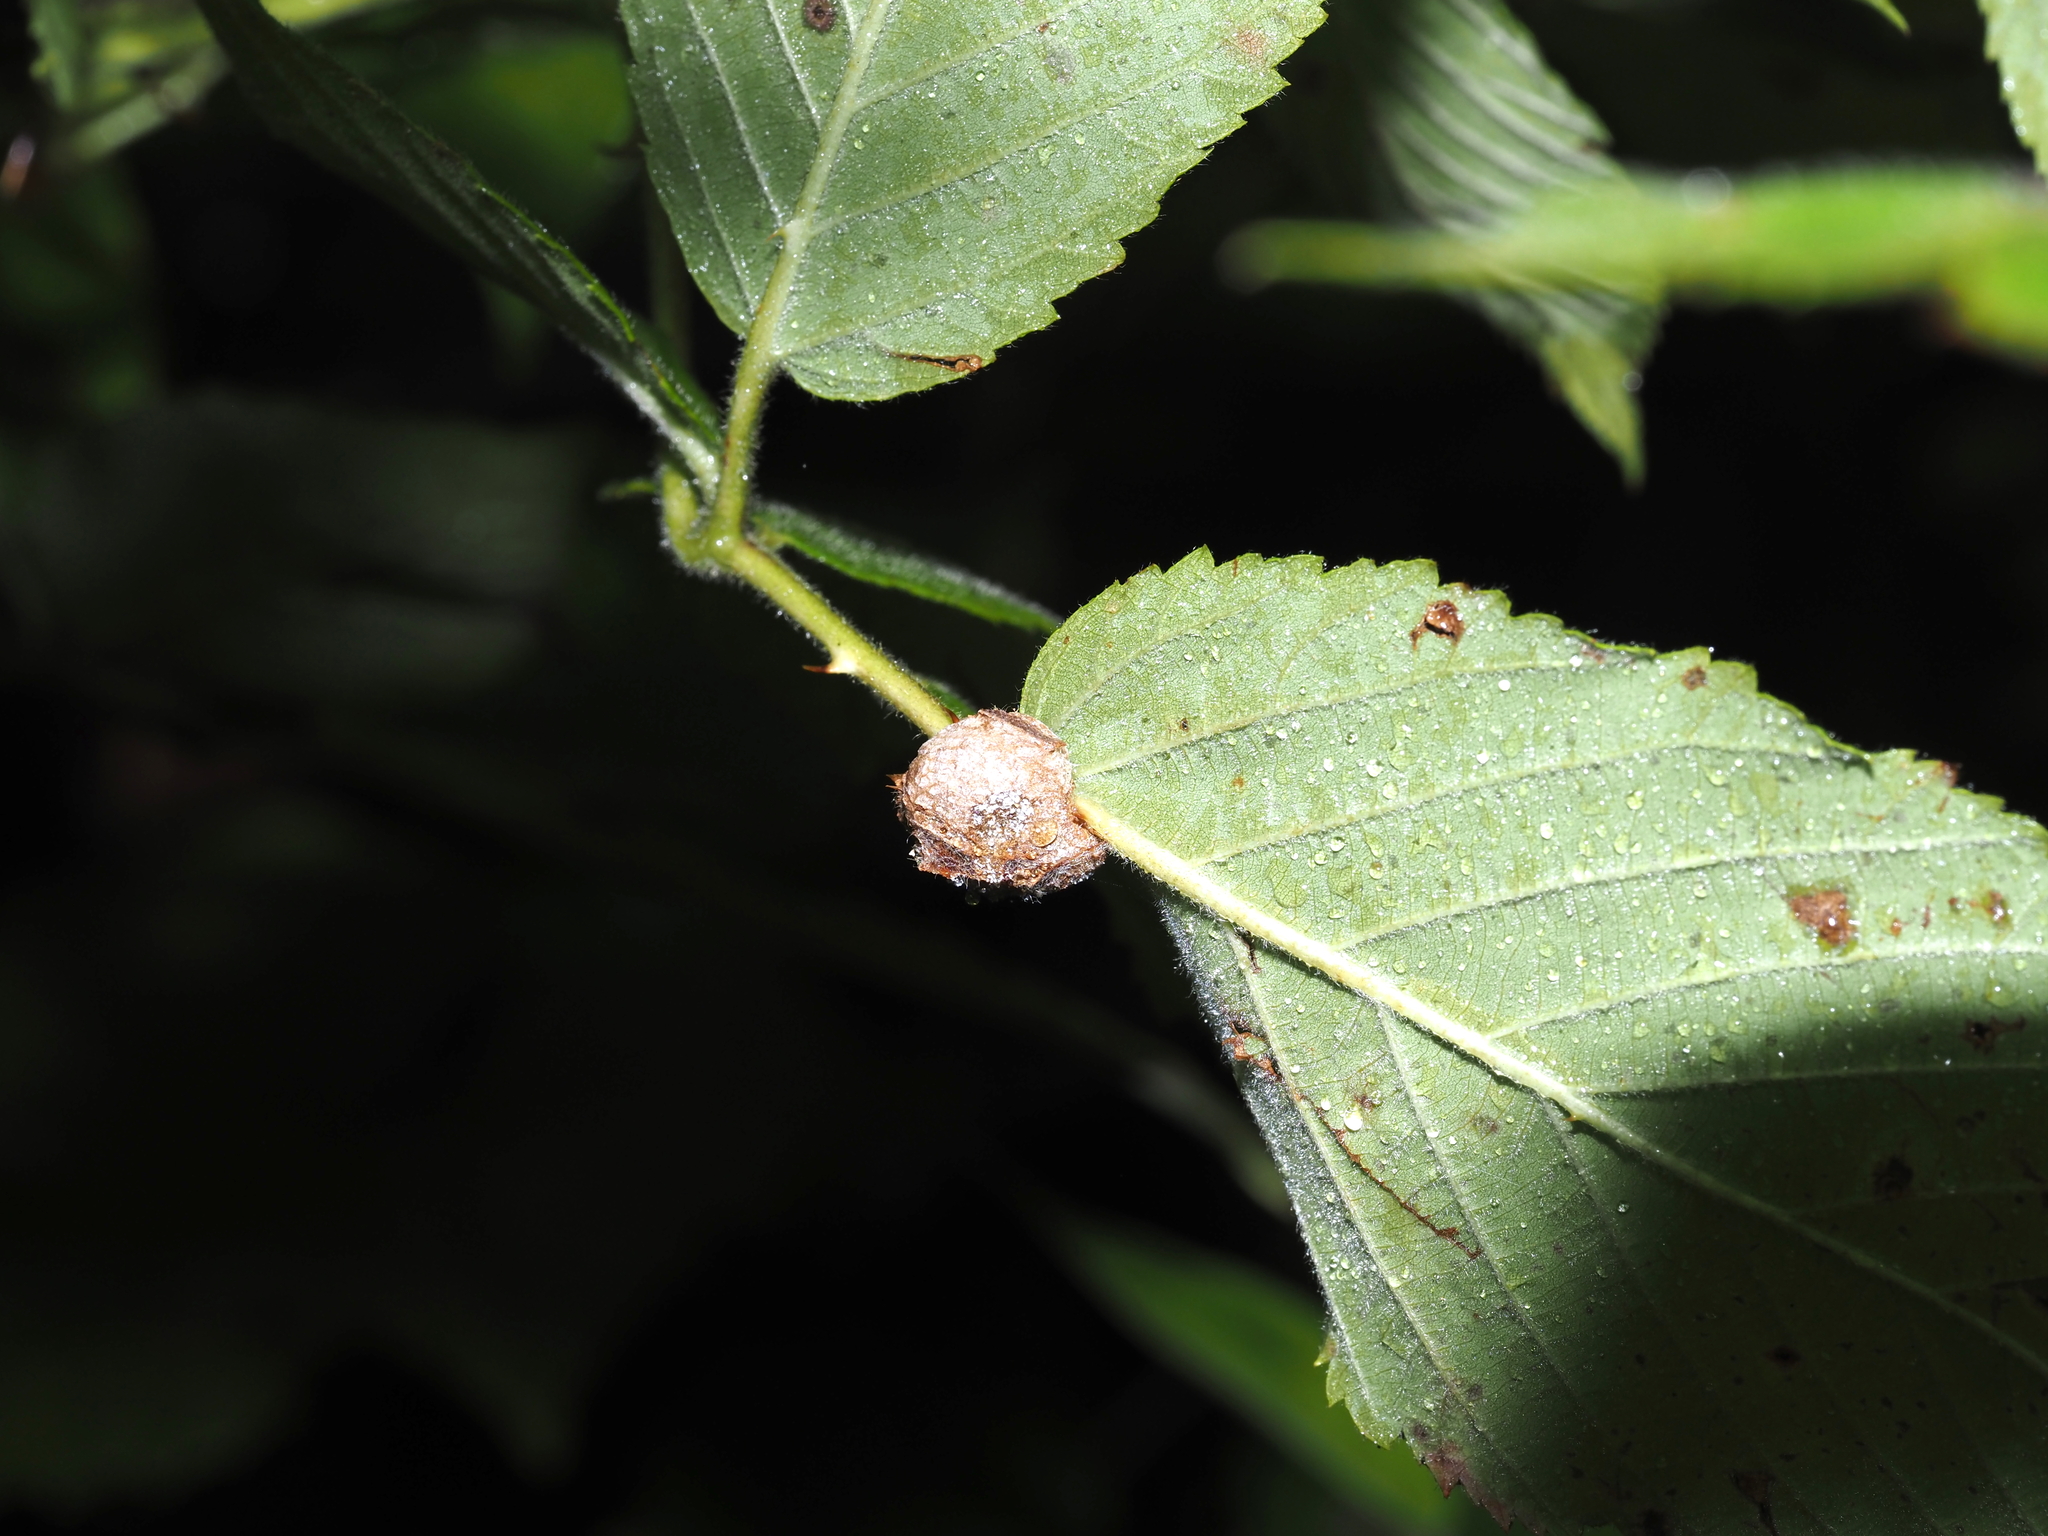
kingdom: Animalia
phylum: Arthropoda
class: Insecta
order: Diptera
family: Cecidomyiidae
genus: Neolasioptera
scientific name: Neolasioptera farinosa
